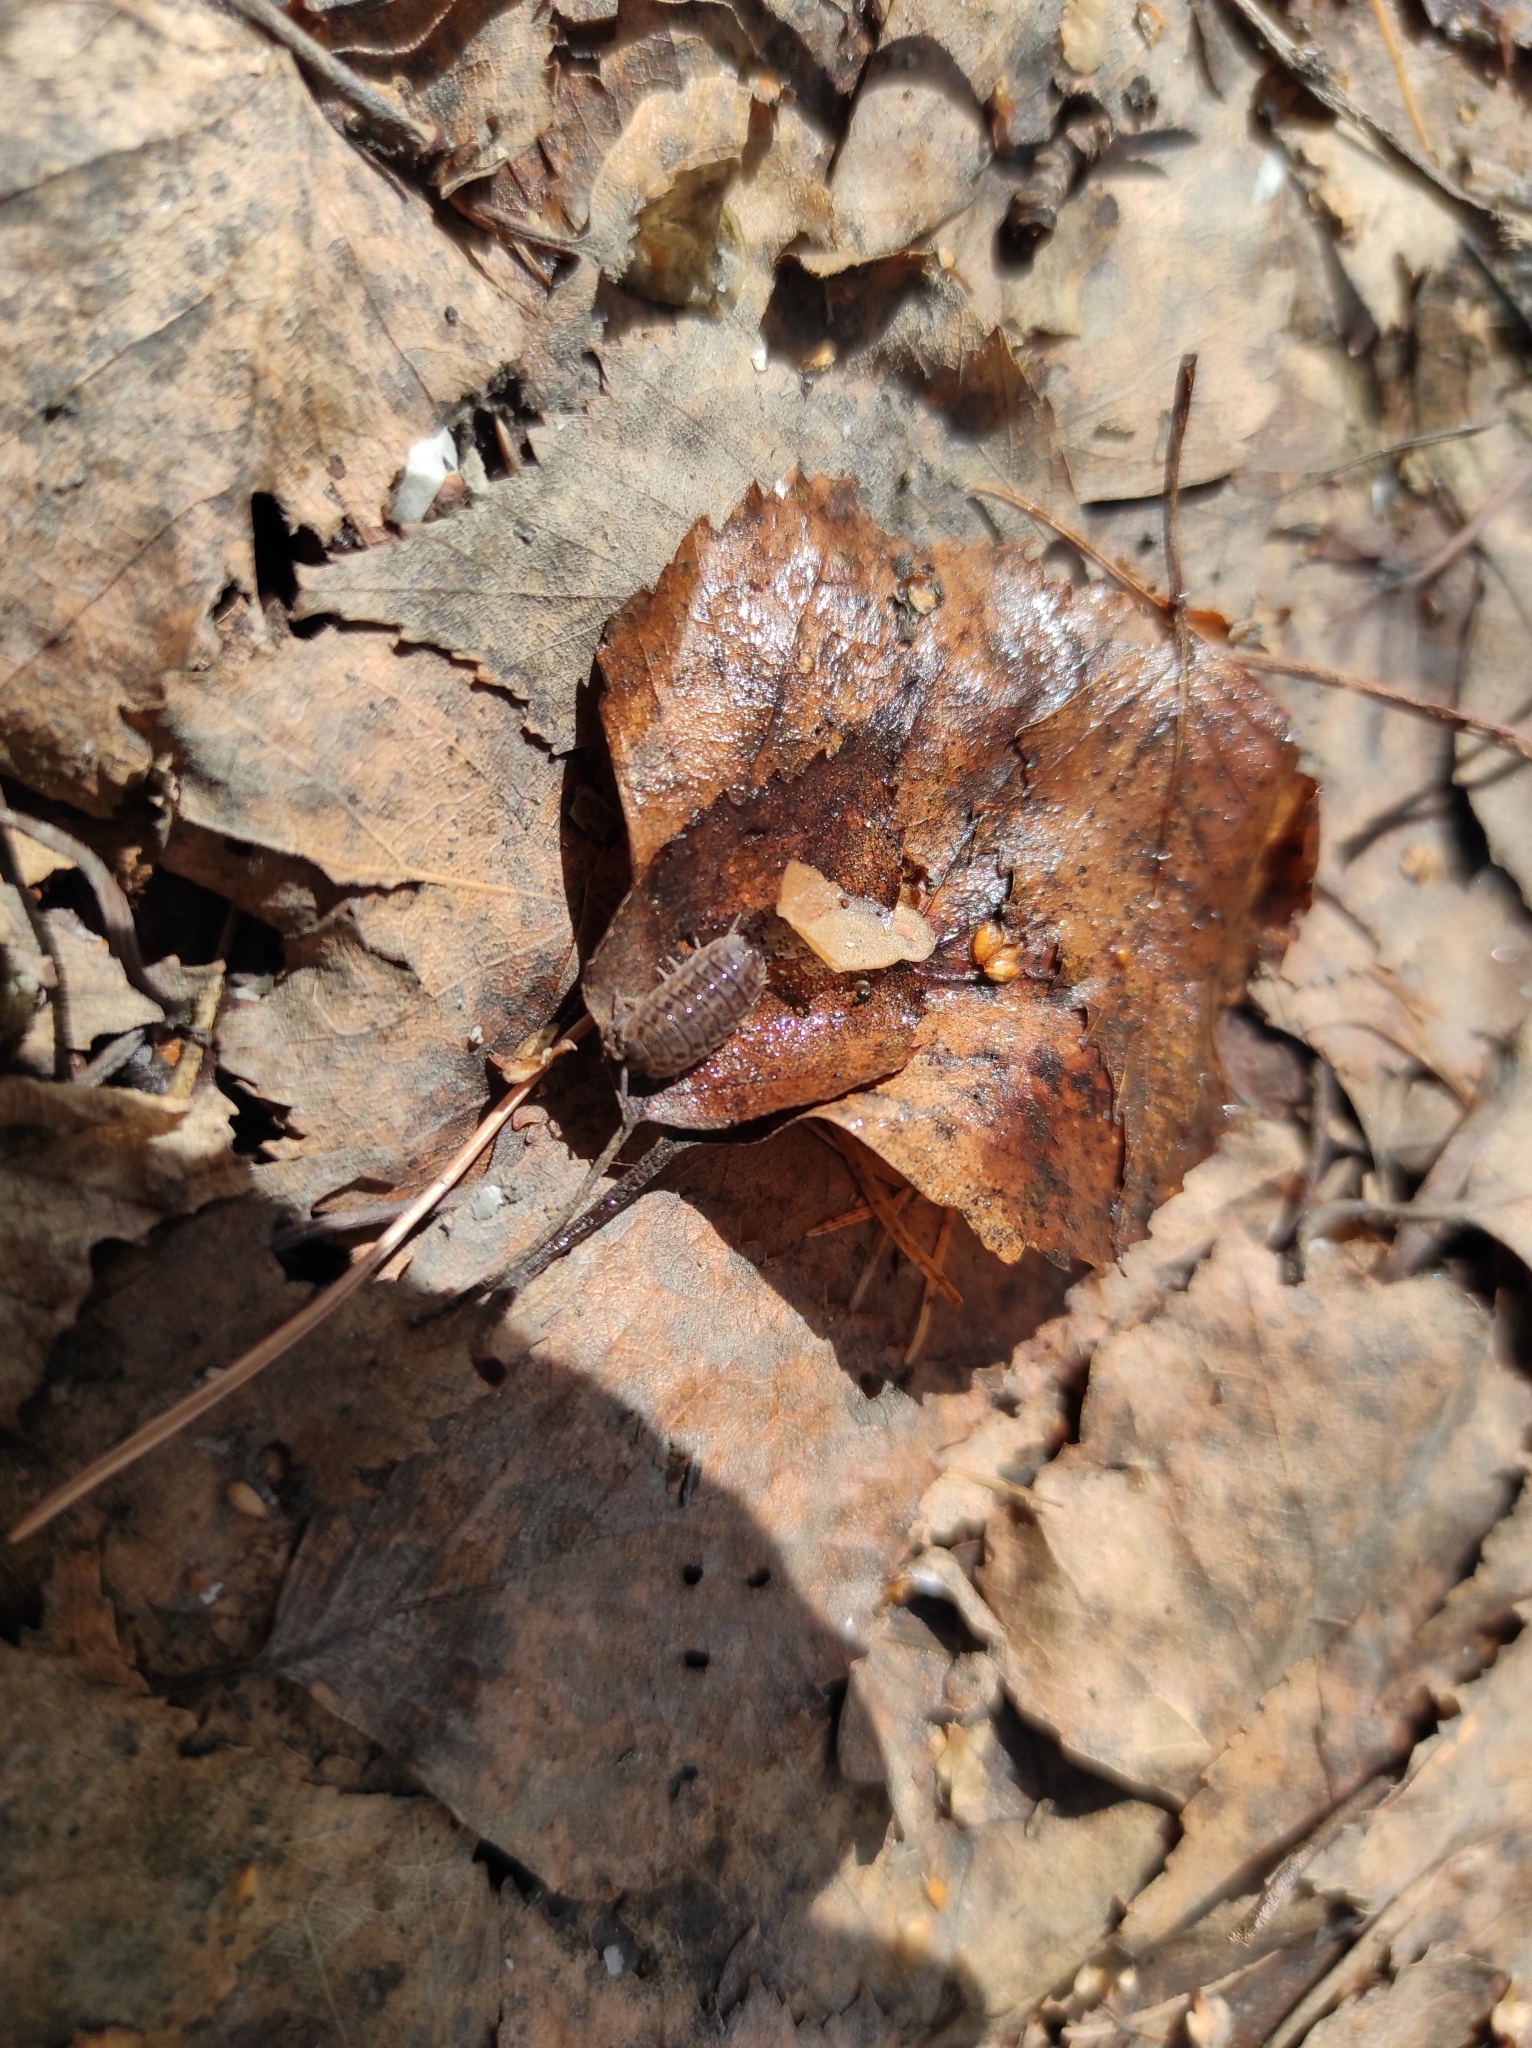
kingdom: Animalia
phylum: Arthropoda
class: Malacostraca
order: Isopoda
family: Trachelipodidae
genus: Trachelipus
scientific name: Trachelipus rathkii
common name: Isopod
